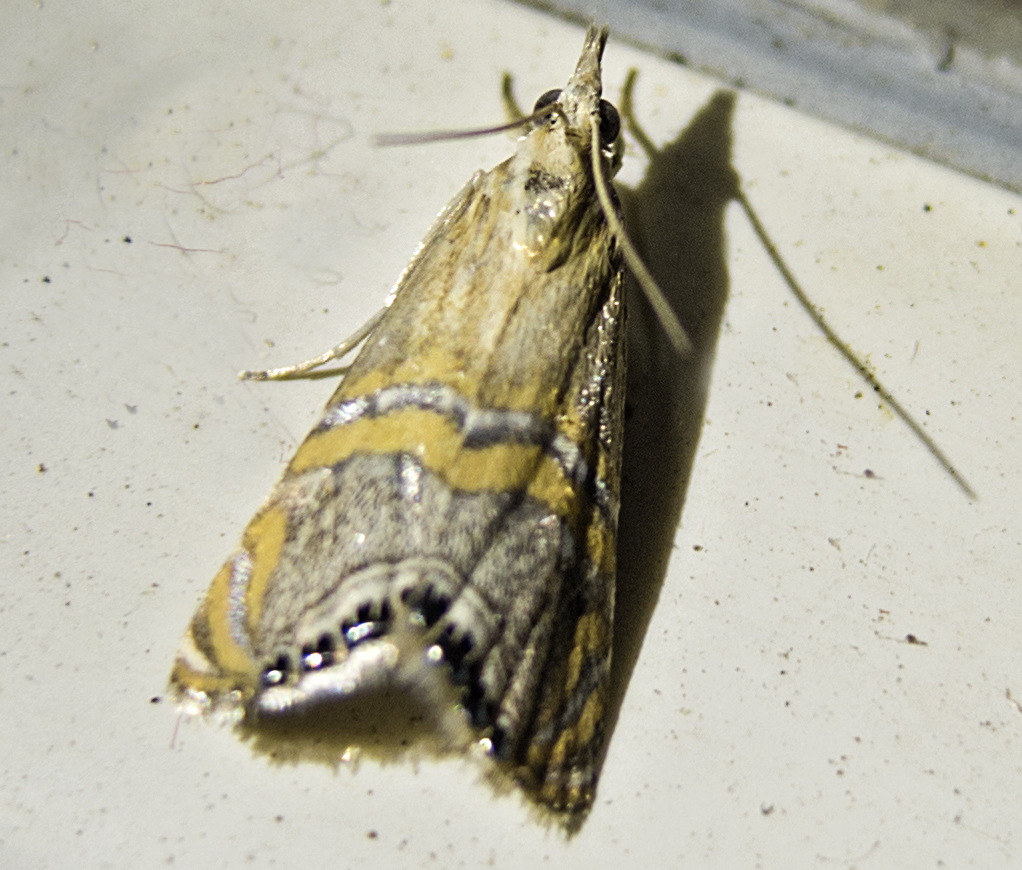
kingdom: Animalia
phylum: Arthropoda
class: Insecta
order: Lepidoptera
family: Crambidae
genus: Euchromius
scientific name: Euchromius bella
